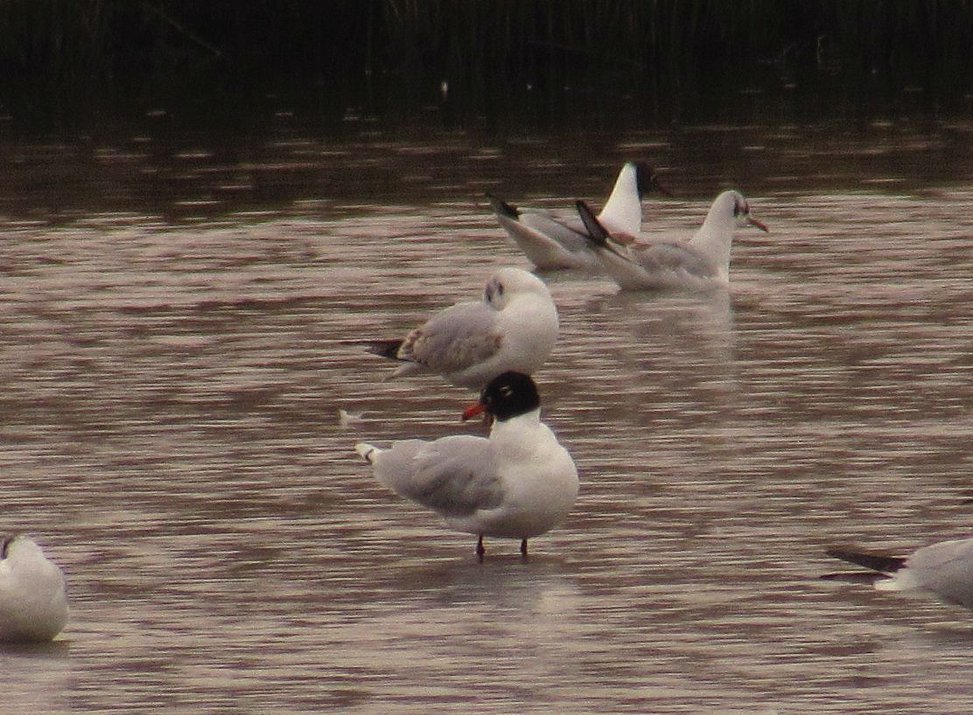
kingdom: Animalia
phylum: Chordata
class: Aves
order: Charadriiformes
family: Laridae
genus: Ichthyaetus
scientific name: Ichthyaetus melanocephalus
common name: Mediterranean gull
